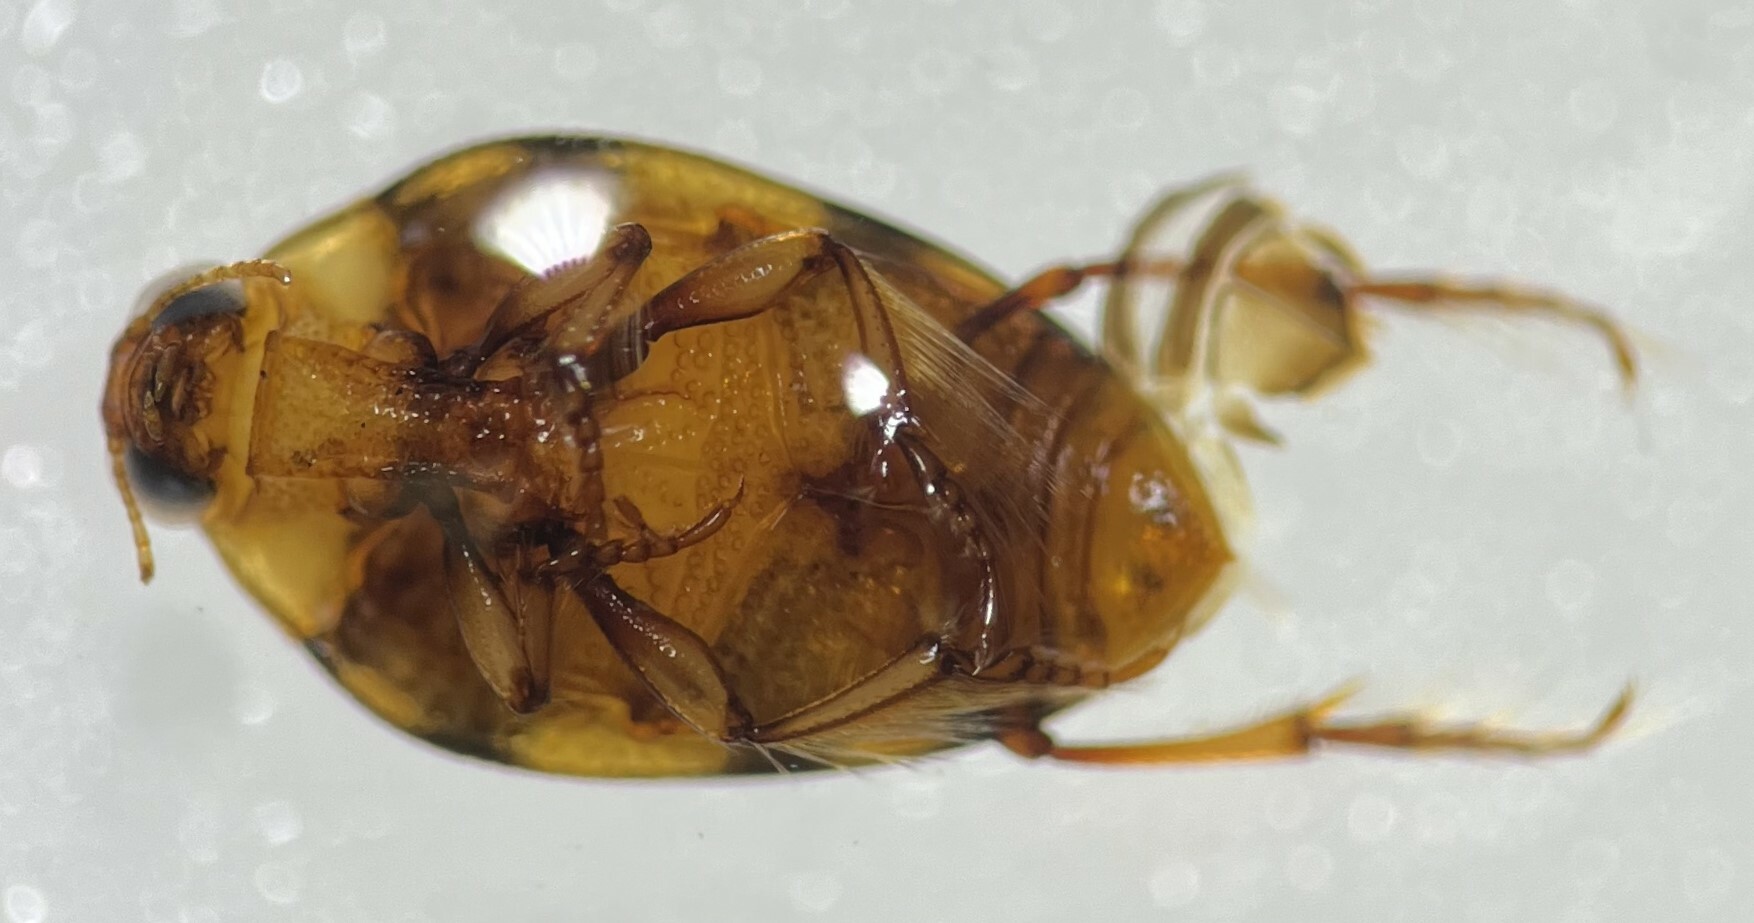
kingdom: Animalia
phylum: Arthropoda
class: Insecta
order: Coleoptera
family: Haliplidae
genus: Haliplus
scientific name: Haliplus punctatus
